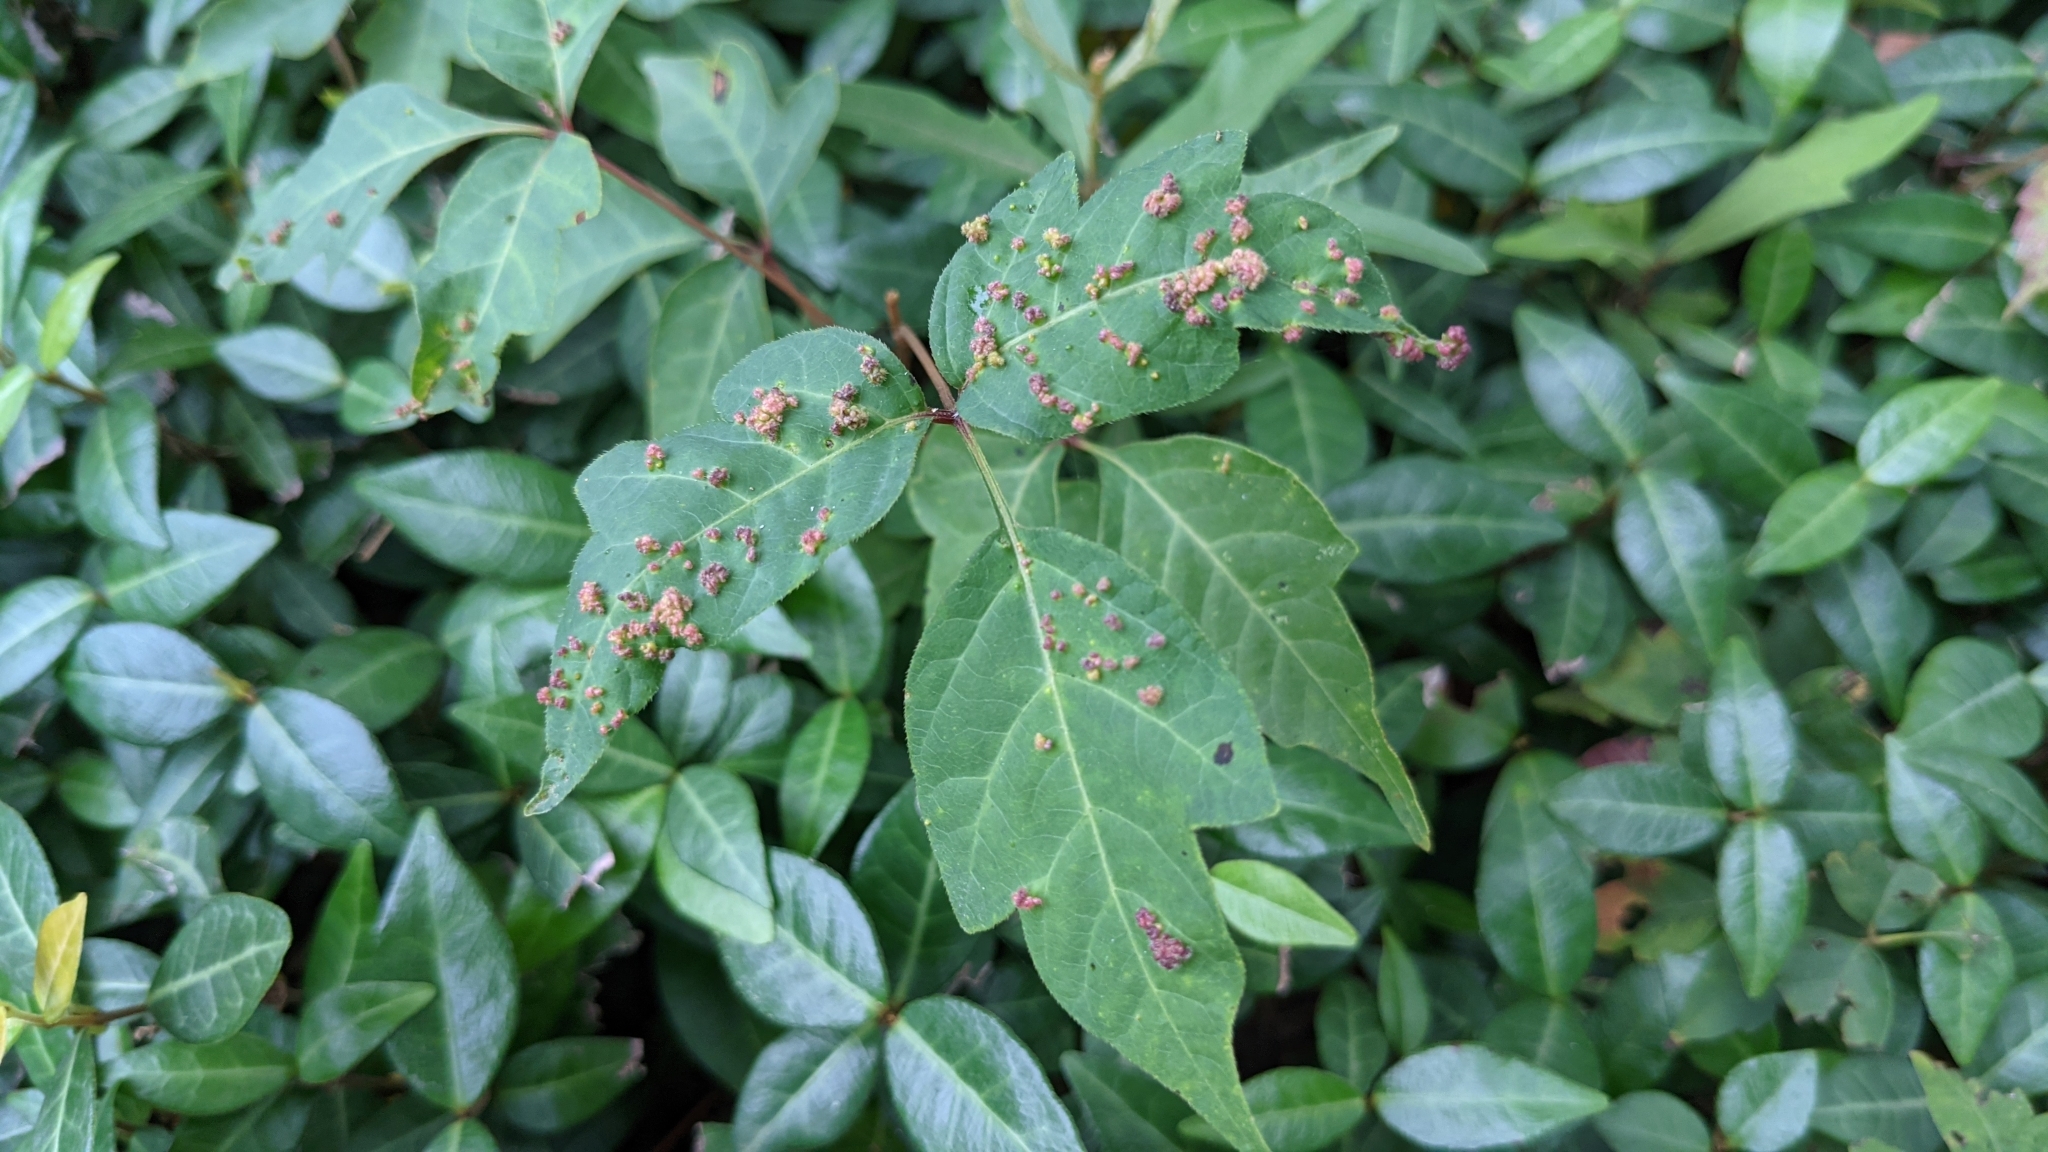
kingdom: Animalia
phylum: Arthropoda
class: Arachnida
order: Trombidiformes
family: Eriophyidae
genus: Aculops
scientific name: Aculops
